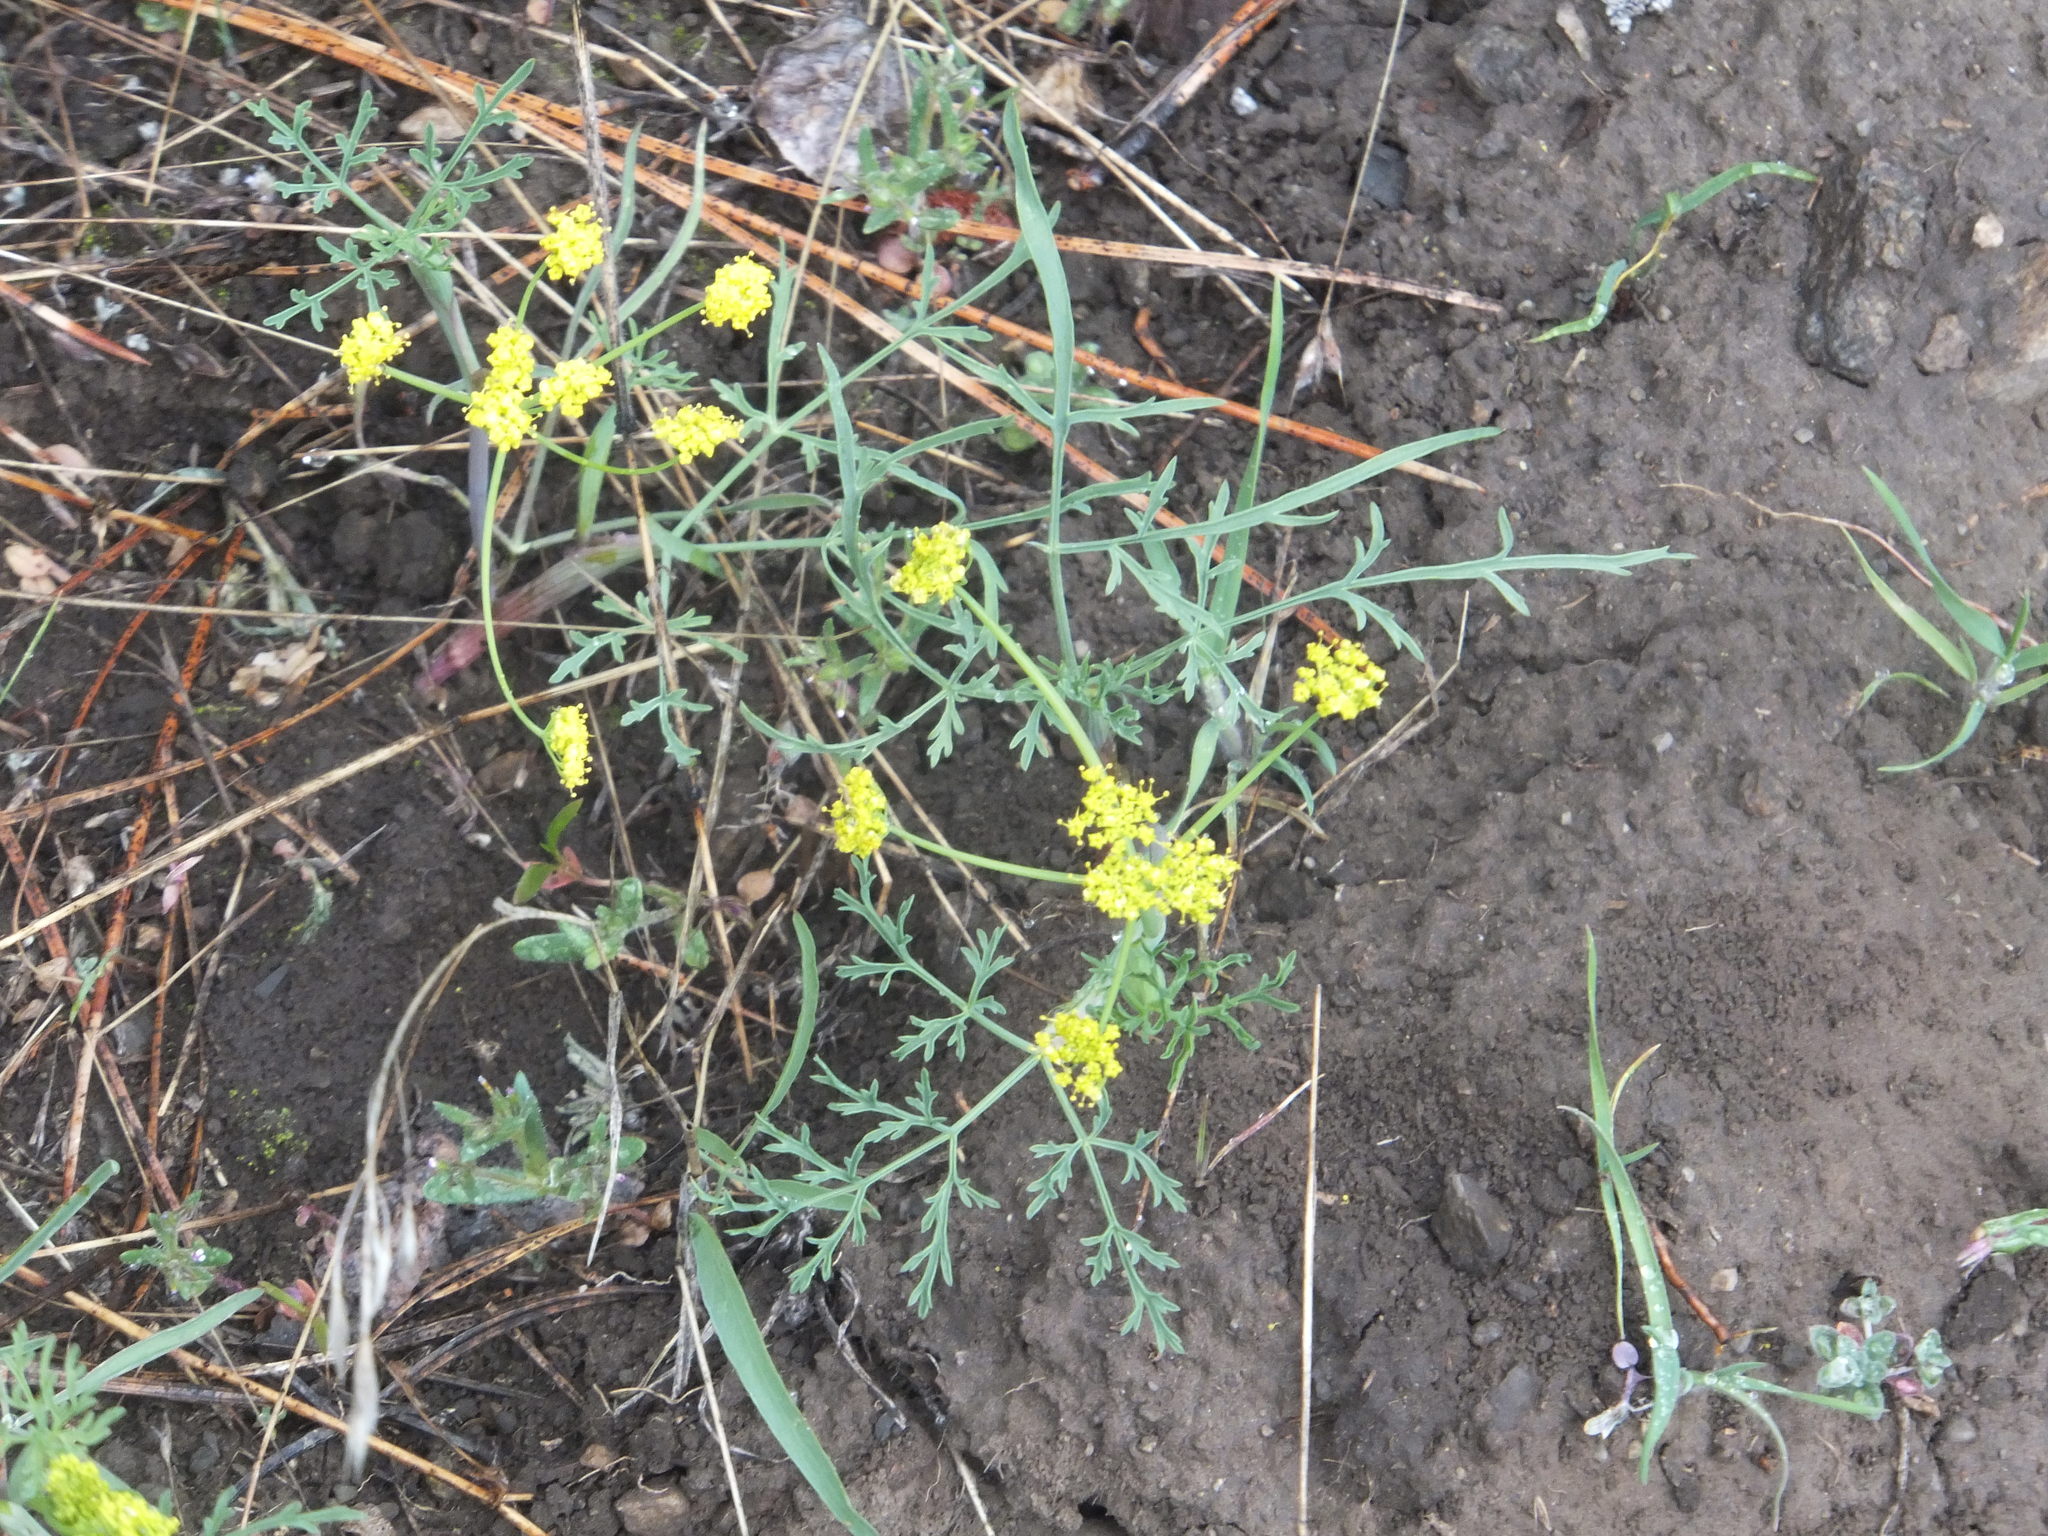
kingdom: Plantae
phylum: Tracheophyta
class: Magnoliopsida
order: Apiales
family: Apiaceae
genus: Lomatium
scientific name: Lomatium ambiguum
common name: Lacy lomatium
